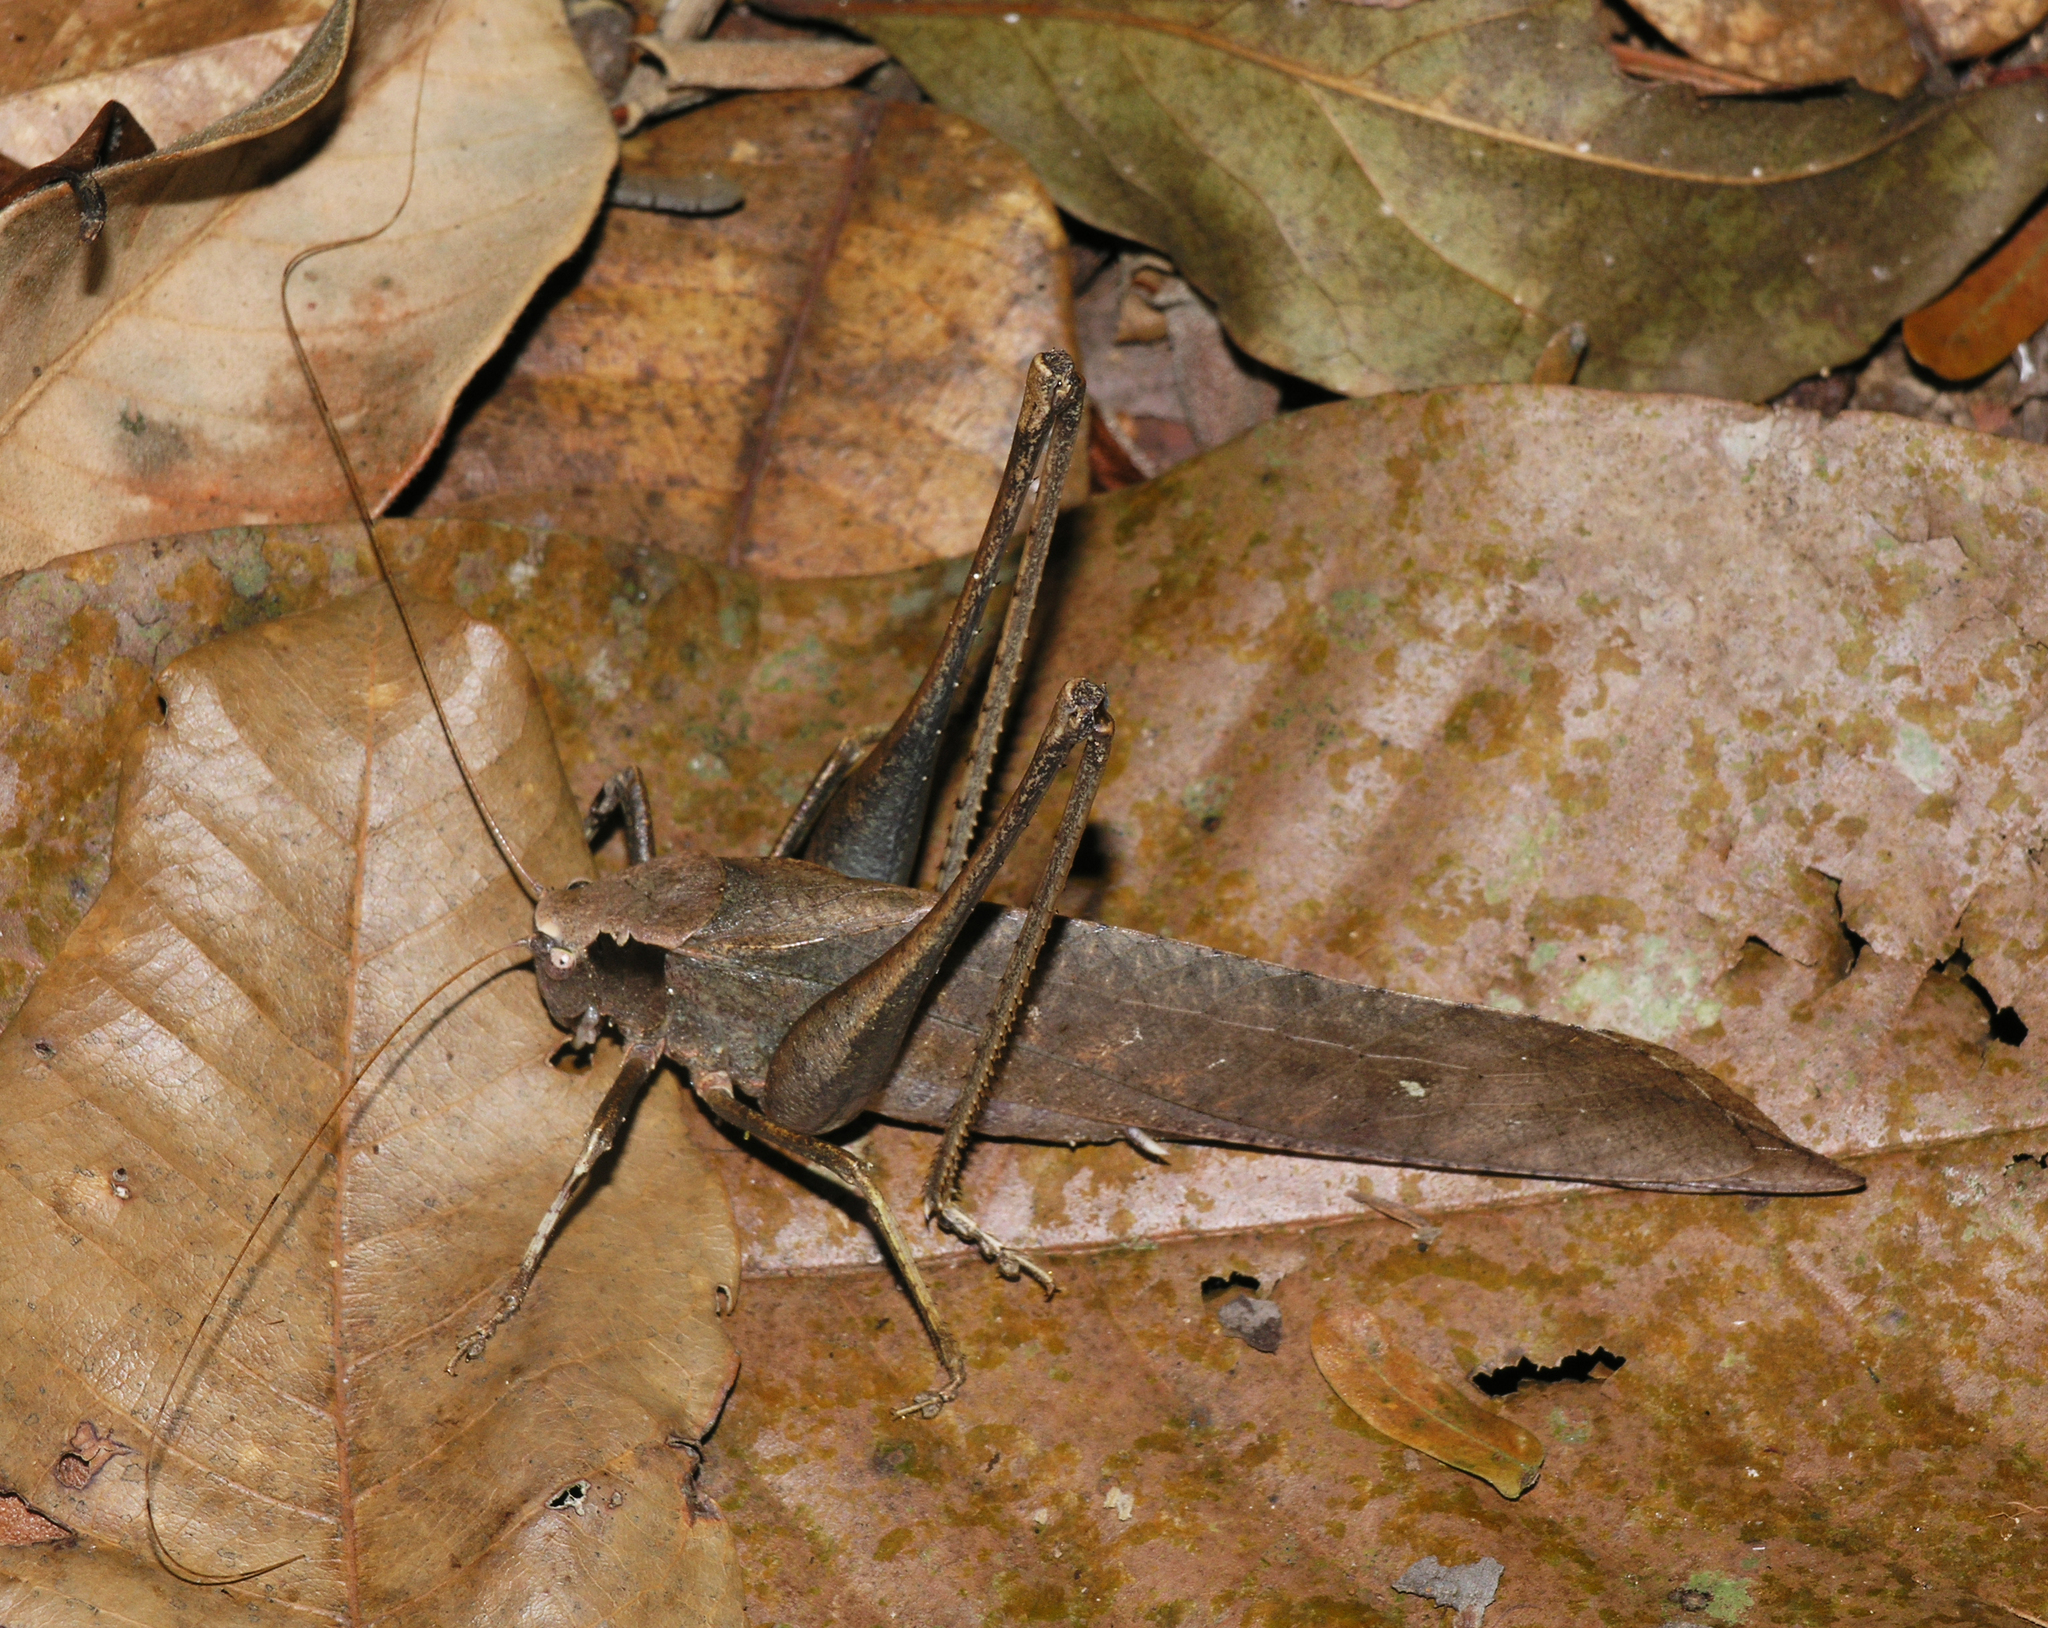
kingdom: Animalia
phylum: Arthropoda
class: Insecta
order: Orthoptera
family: Tettigoniidae
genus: Mecopoda
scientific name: Mecopoda elongata
